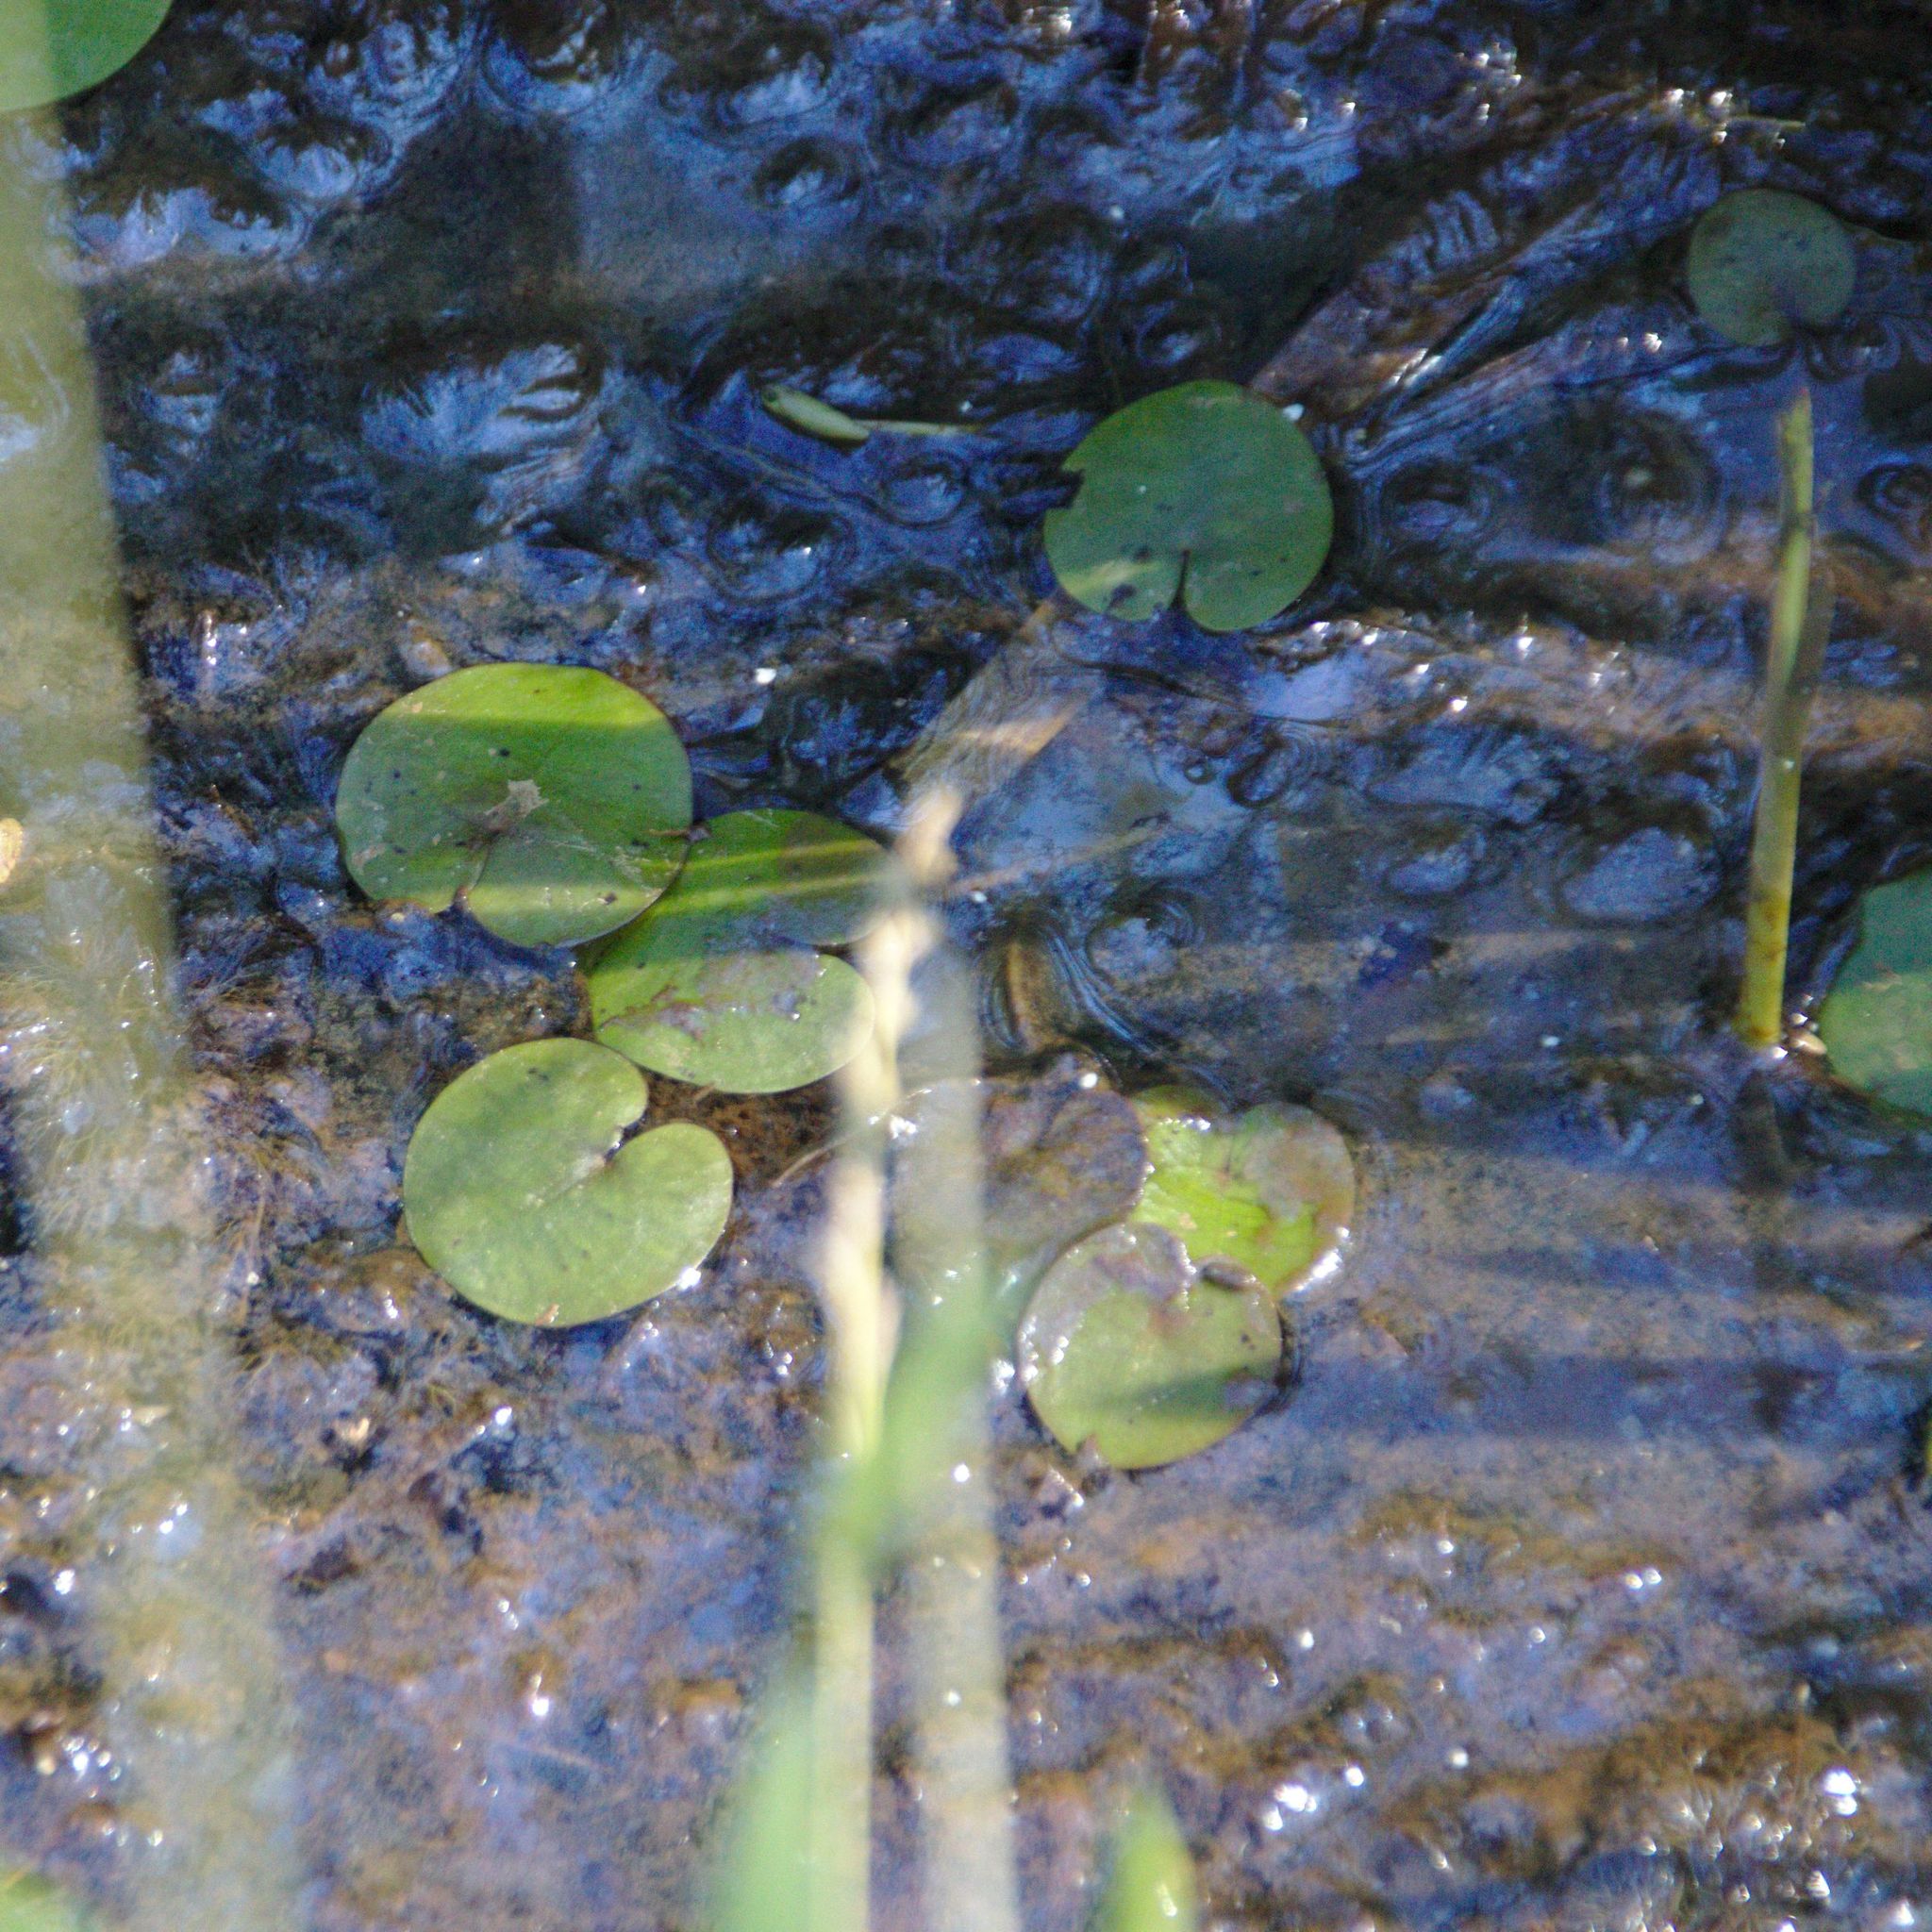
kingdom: Plantae
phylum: Tracheophyta
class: Liliopsida
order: Alismatales
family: Hydrocharitaceae
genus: Hydrocharis
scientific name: Hydrocharis morsus-ranae
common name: Frogbit
